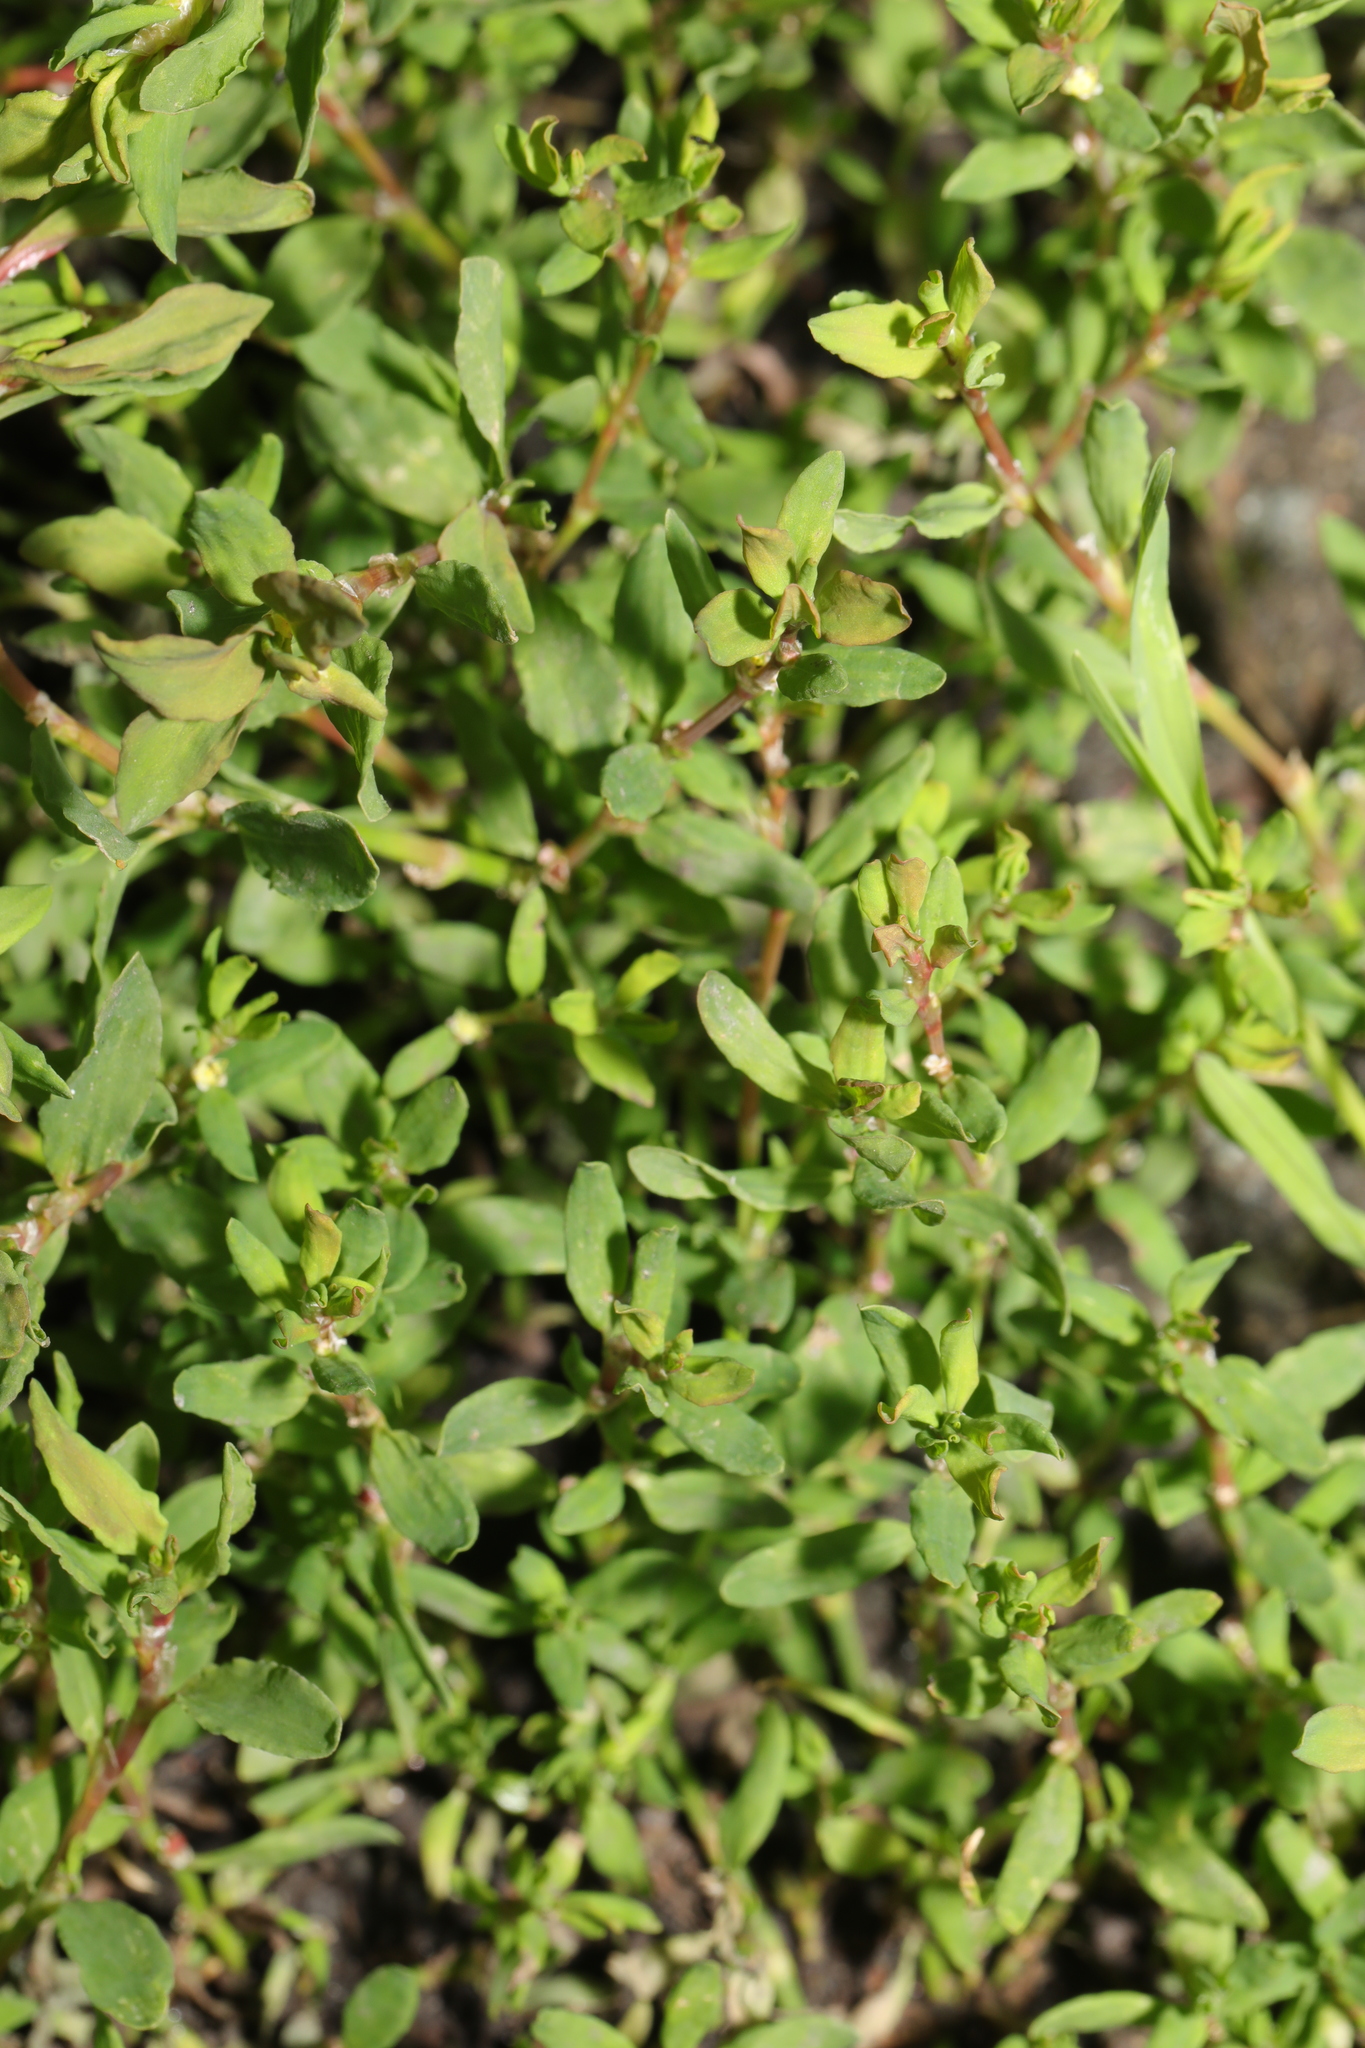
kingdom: Plantae
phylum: Tracheophyta
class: Magnoliopsida
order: Caryophyllales
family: Polygonaceae
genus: Polygonum
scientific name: Polygonum aviculare
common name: Prostrate knotweed
